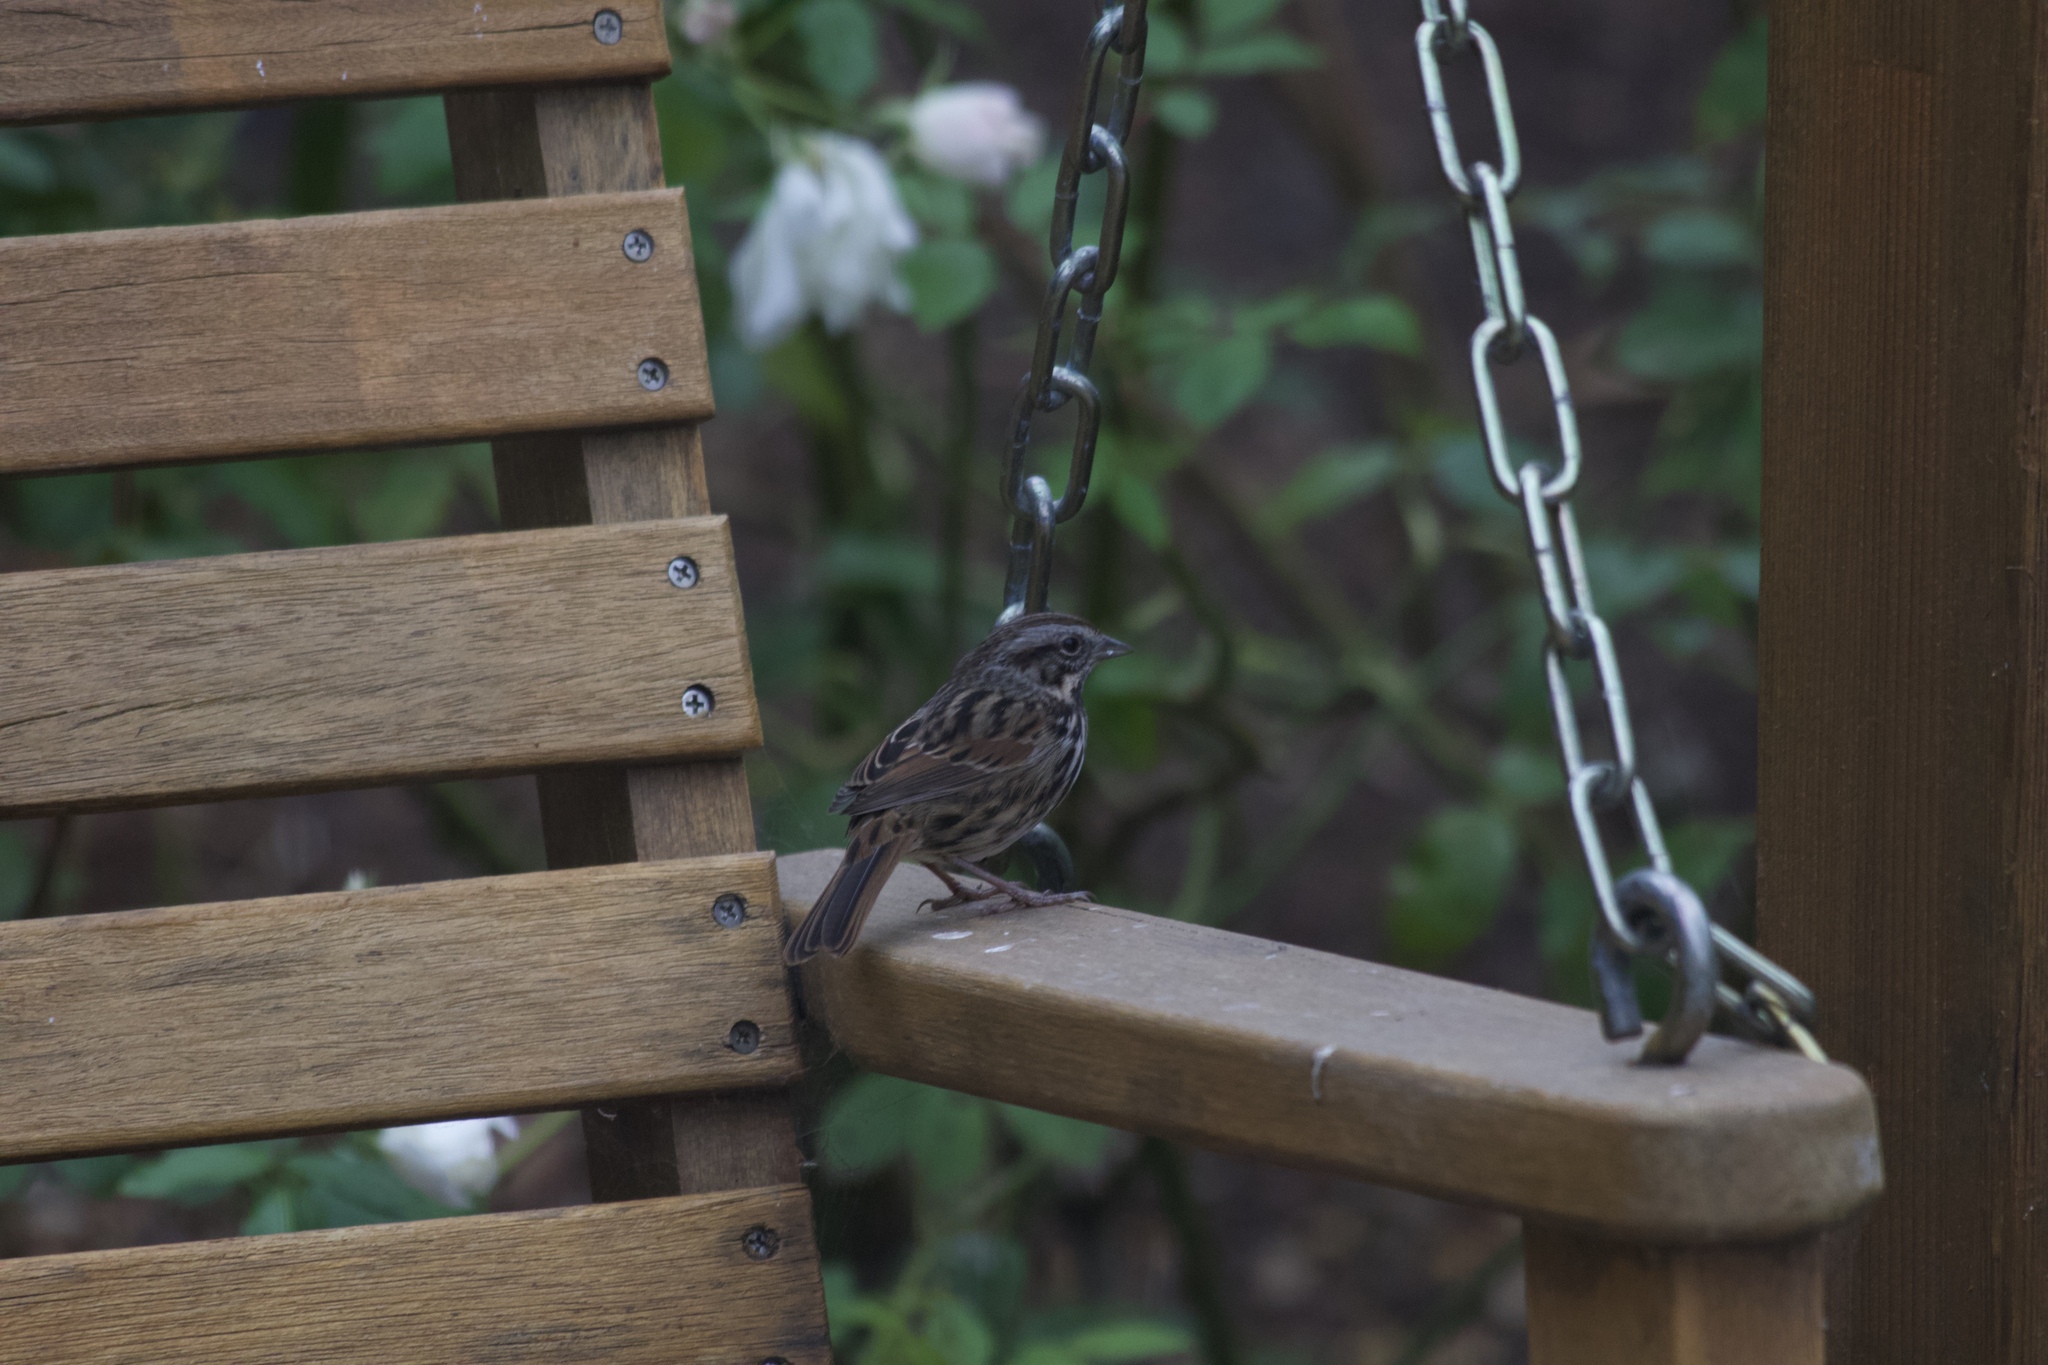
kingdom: Animalia
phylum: Chordata
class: Aves
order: Passeriformes
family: Passerellidae
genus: Melospiza
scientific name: Melospiza melodia
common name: Song sparrow
